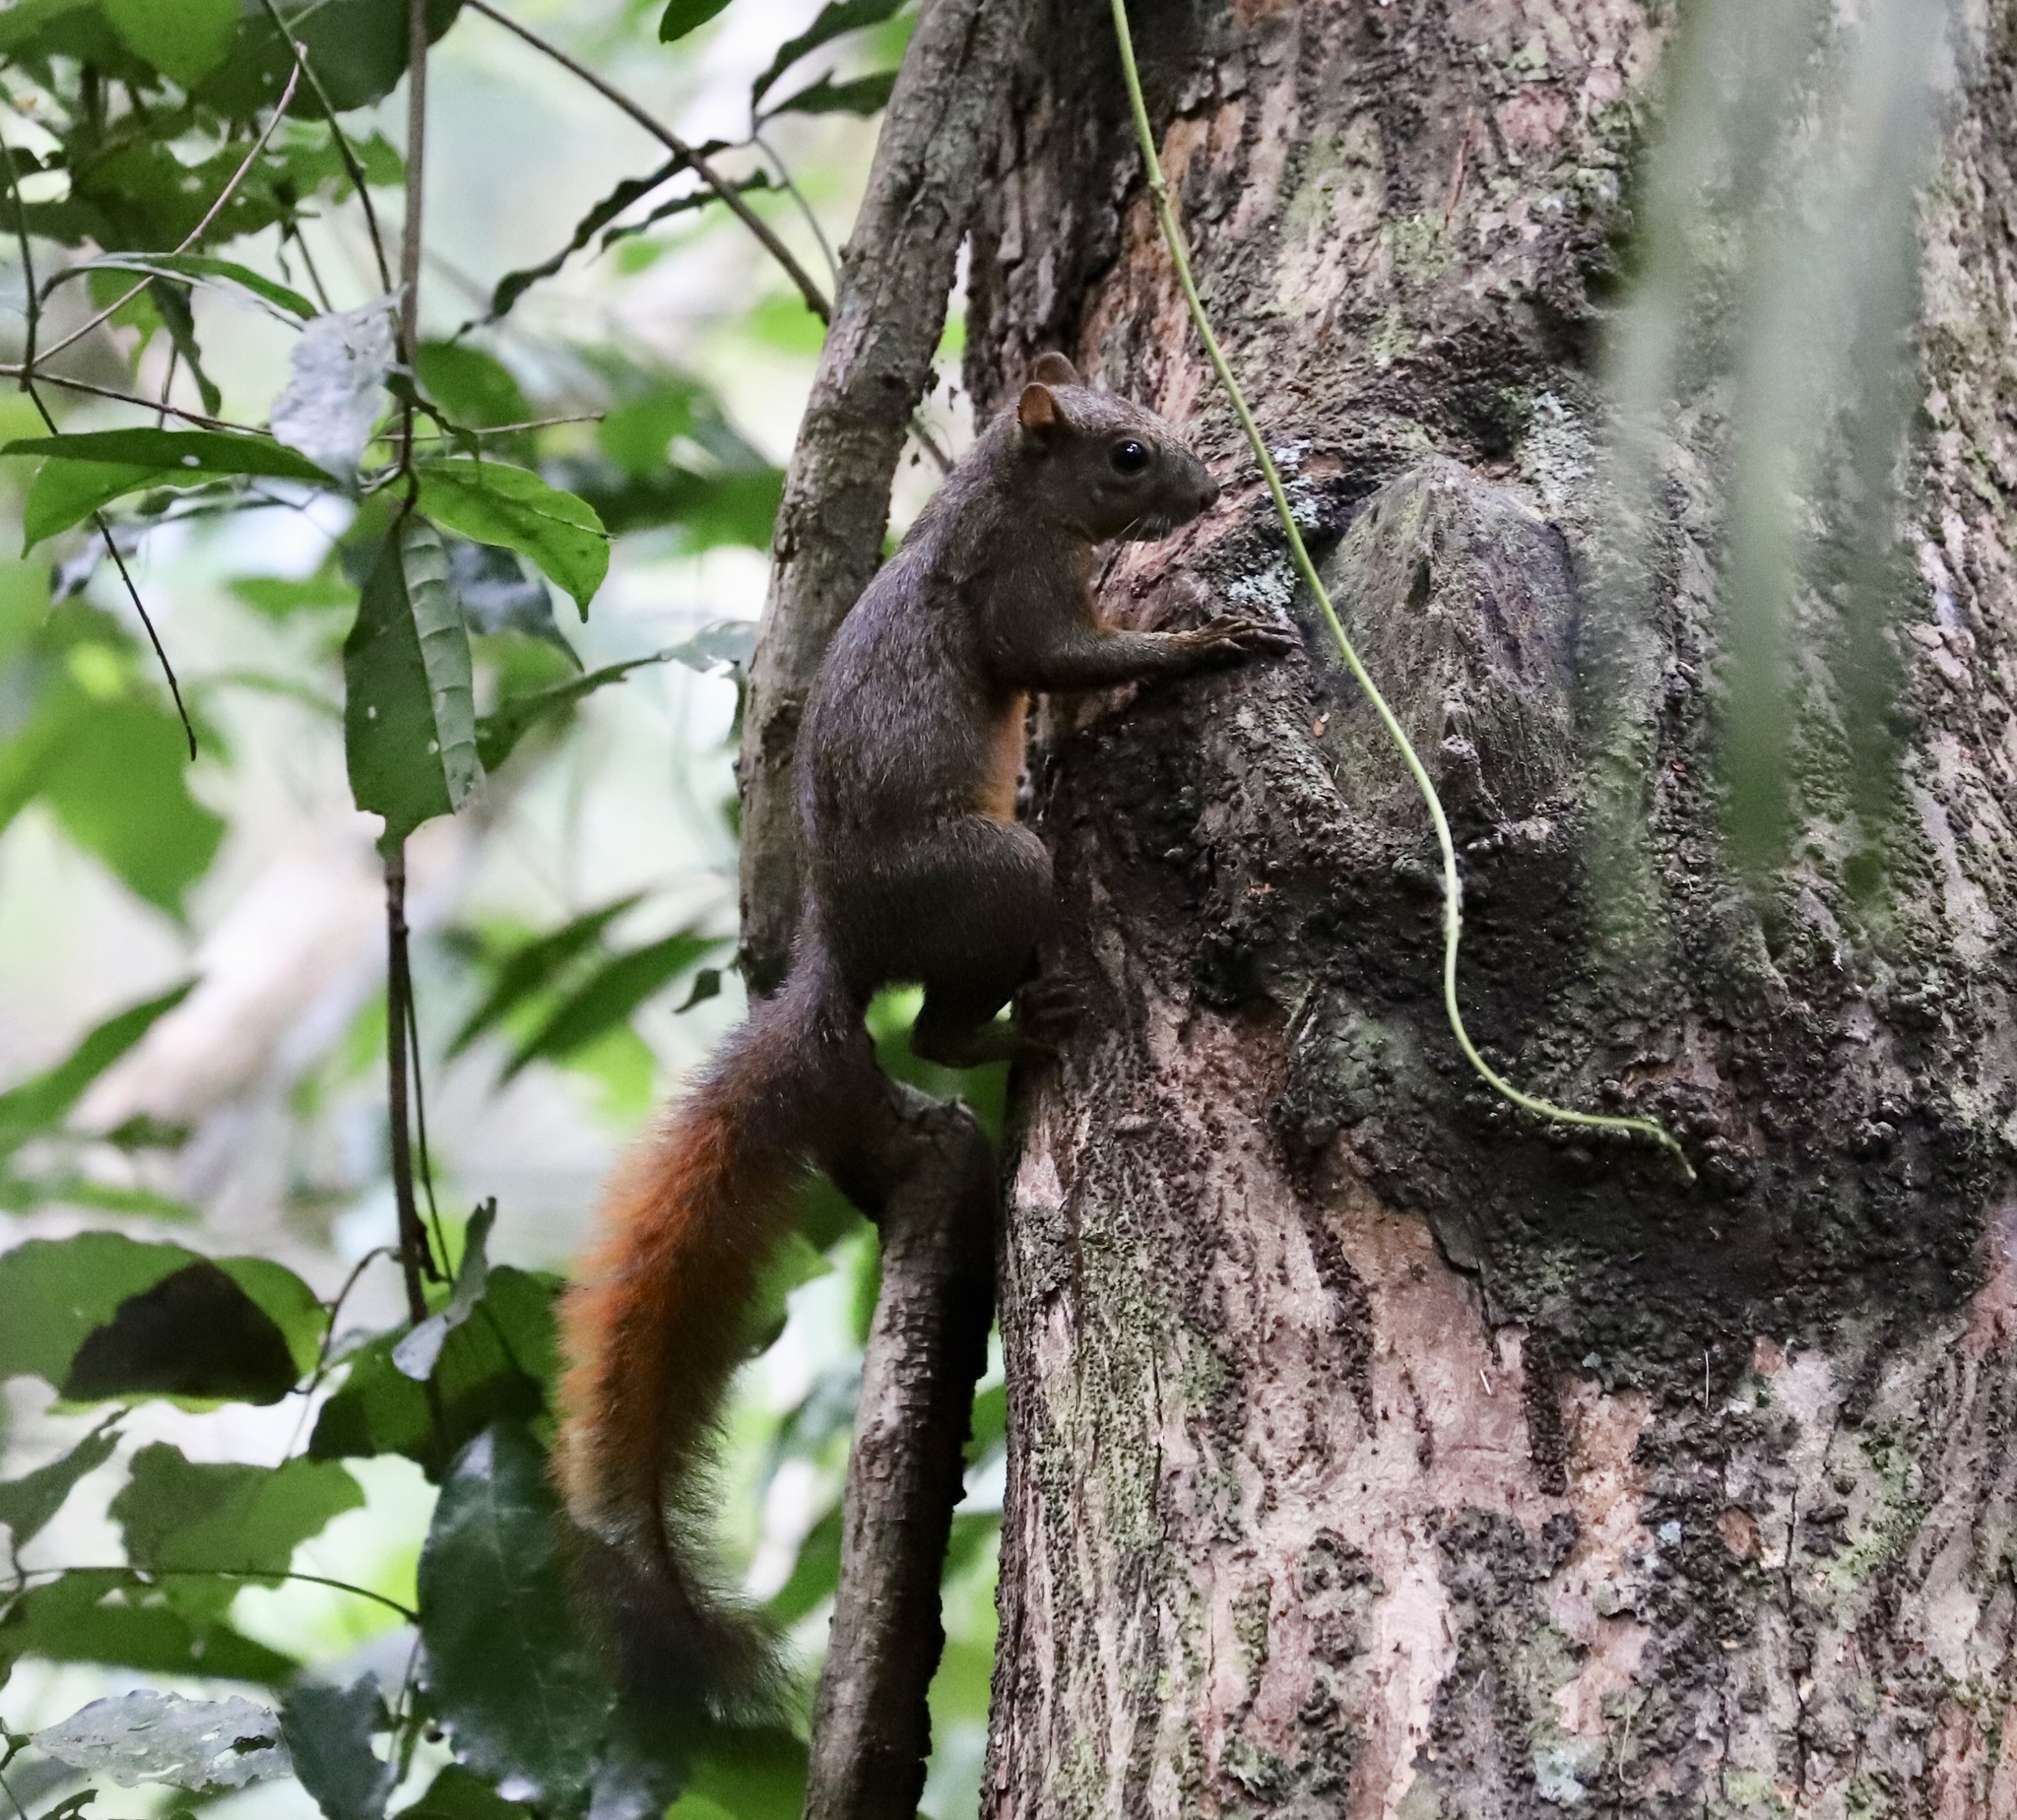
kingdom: Animalia
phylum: Chordata
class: Mammalia
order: Rodentia
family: Sciuridae
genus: Sciurus
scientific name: Sciurus granatensis
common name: Red-tailed squirrel
